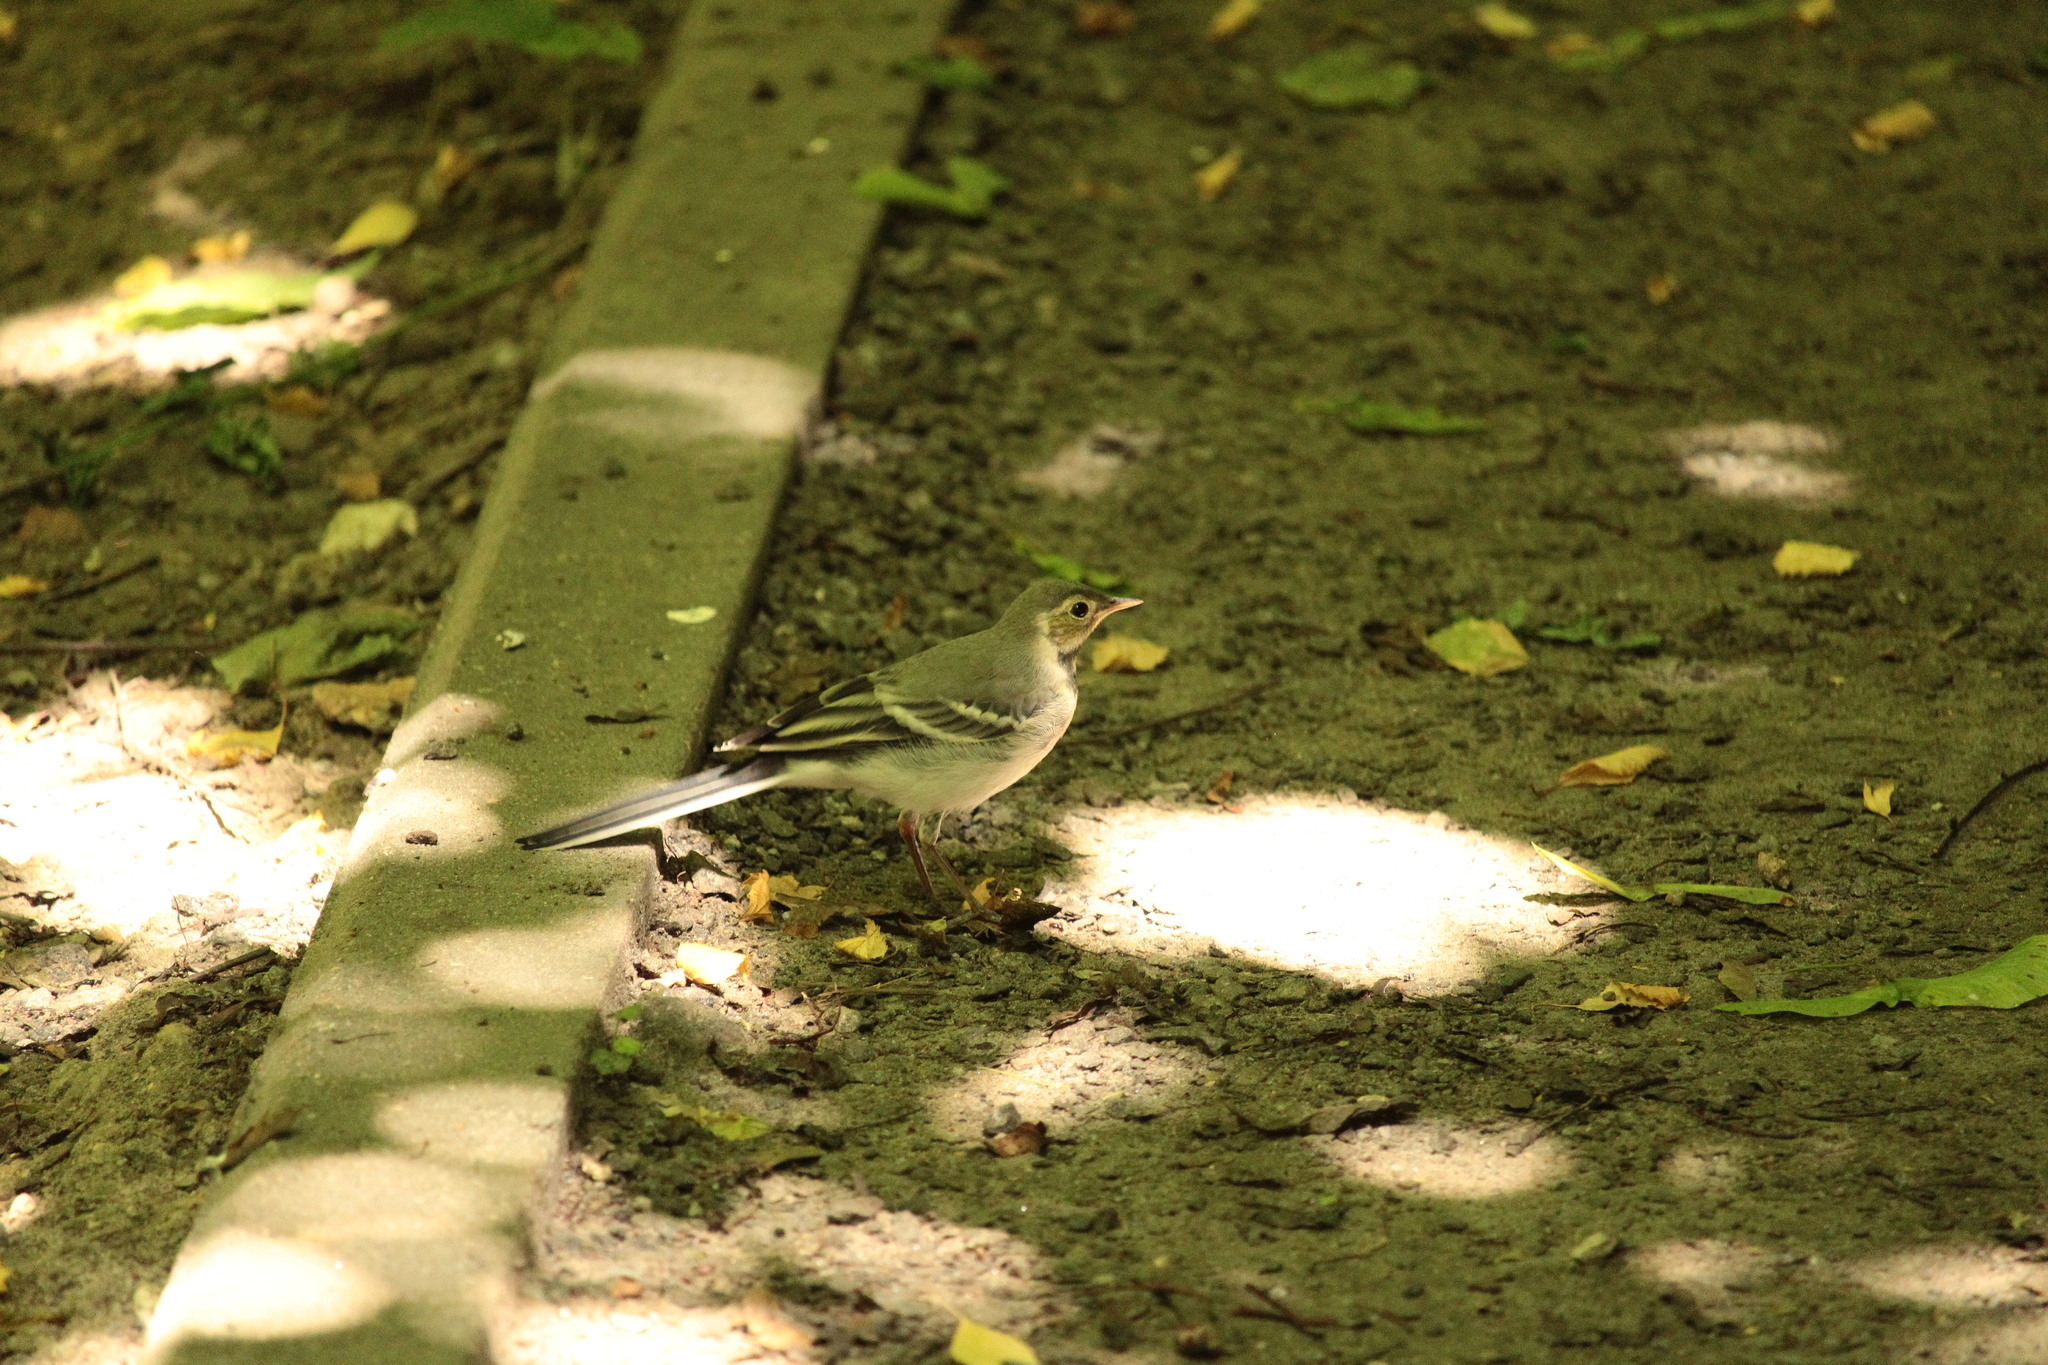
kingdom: Animalia
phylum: Chordata
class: Aves
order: Passeriformes
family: Motacillidae
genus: Motacilla
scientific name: Motacilla alba
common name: White wagtail
